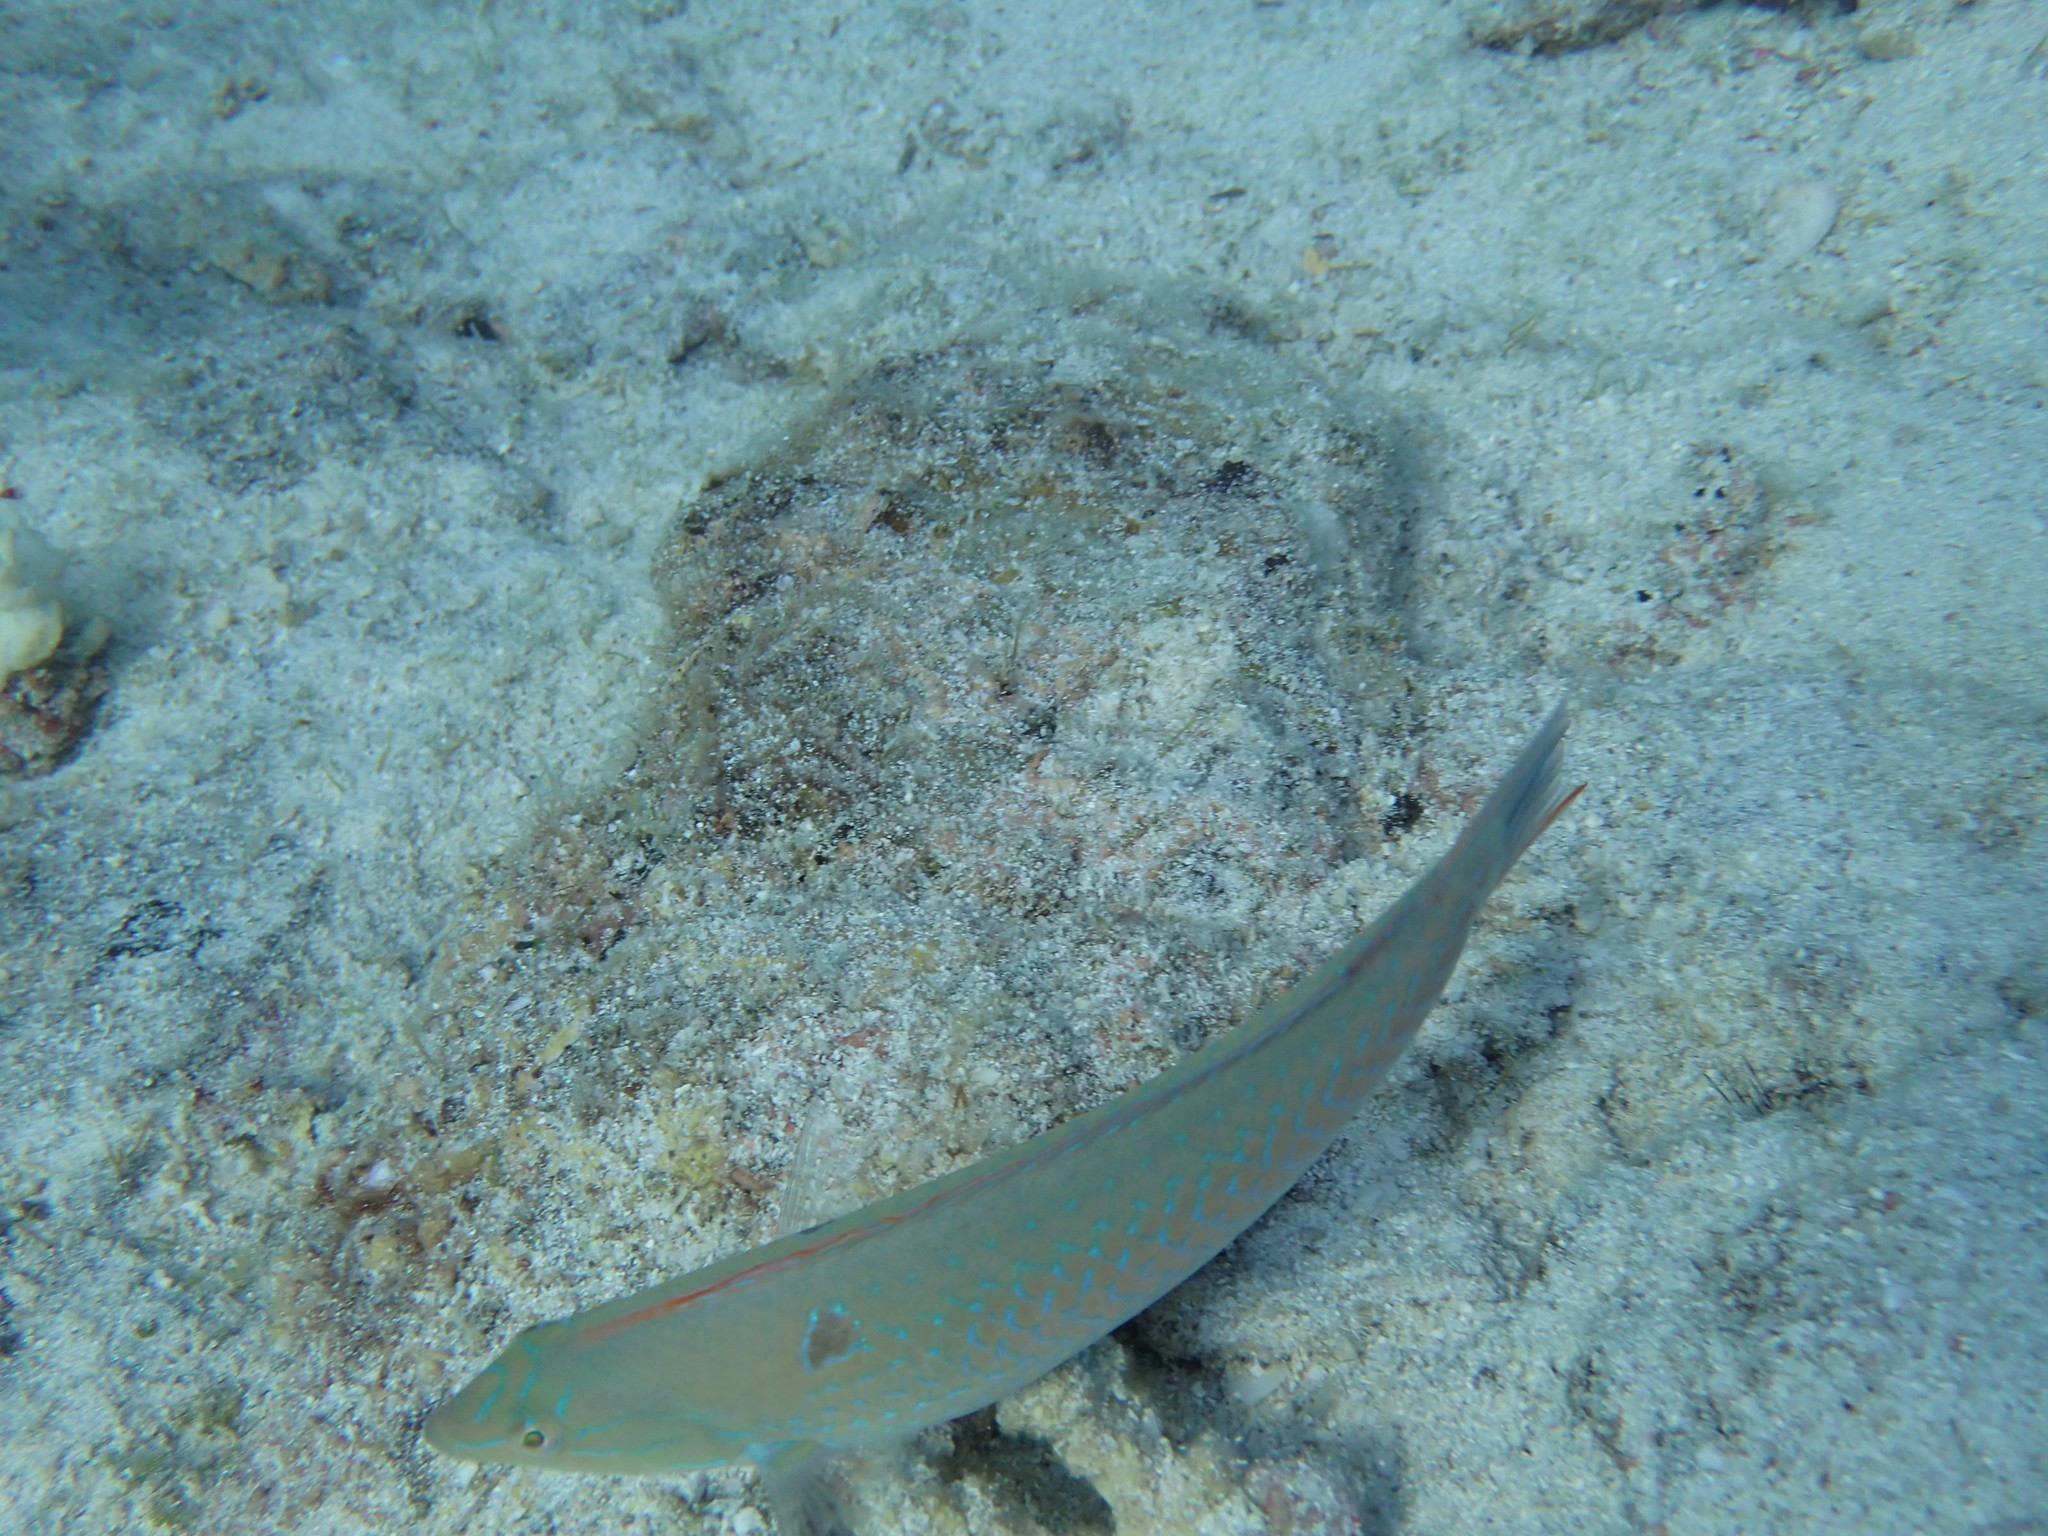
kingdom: Animalia
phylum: Chordata
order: Perciformes
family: Labridae
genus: Halichoeres
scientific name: Halichoeres dispilus
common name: Chameleon wrasse
